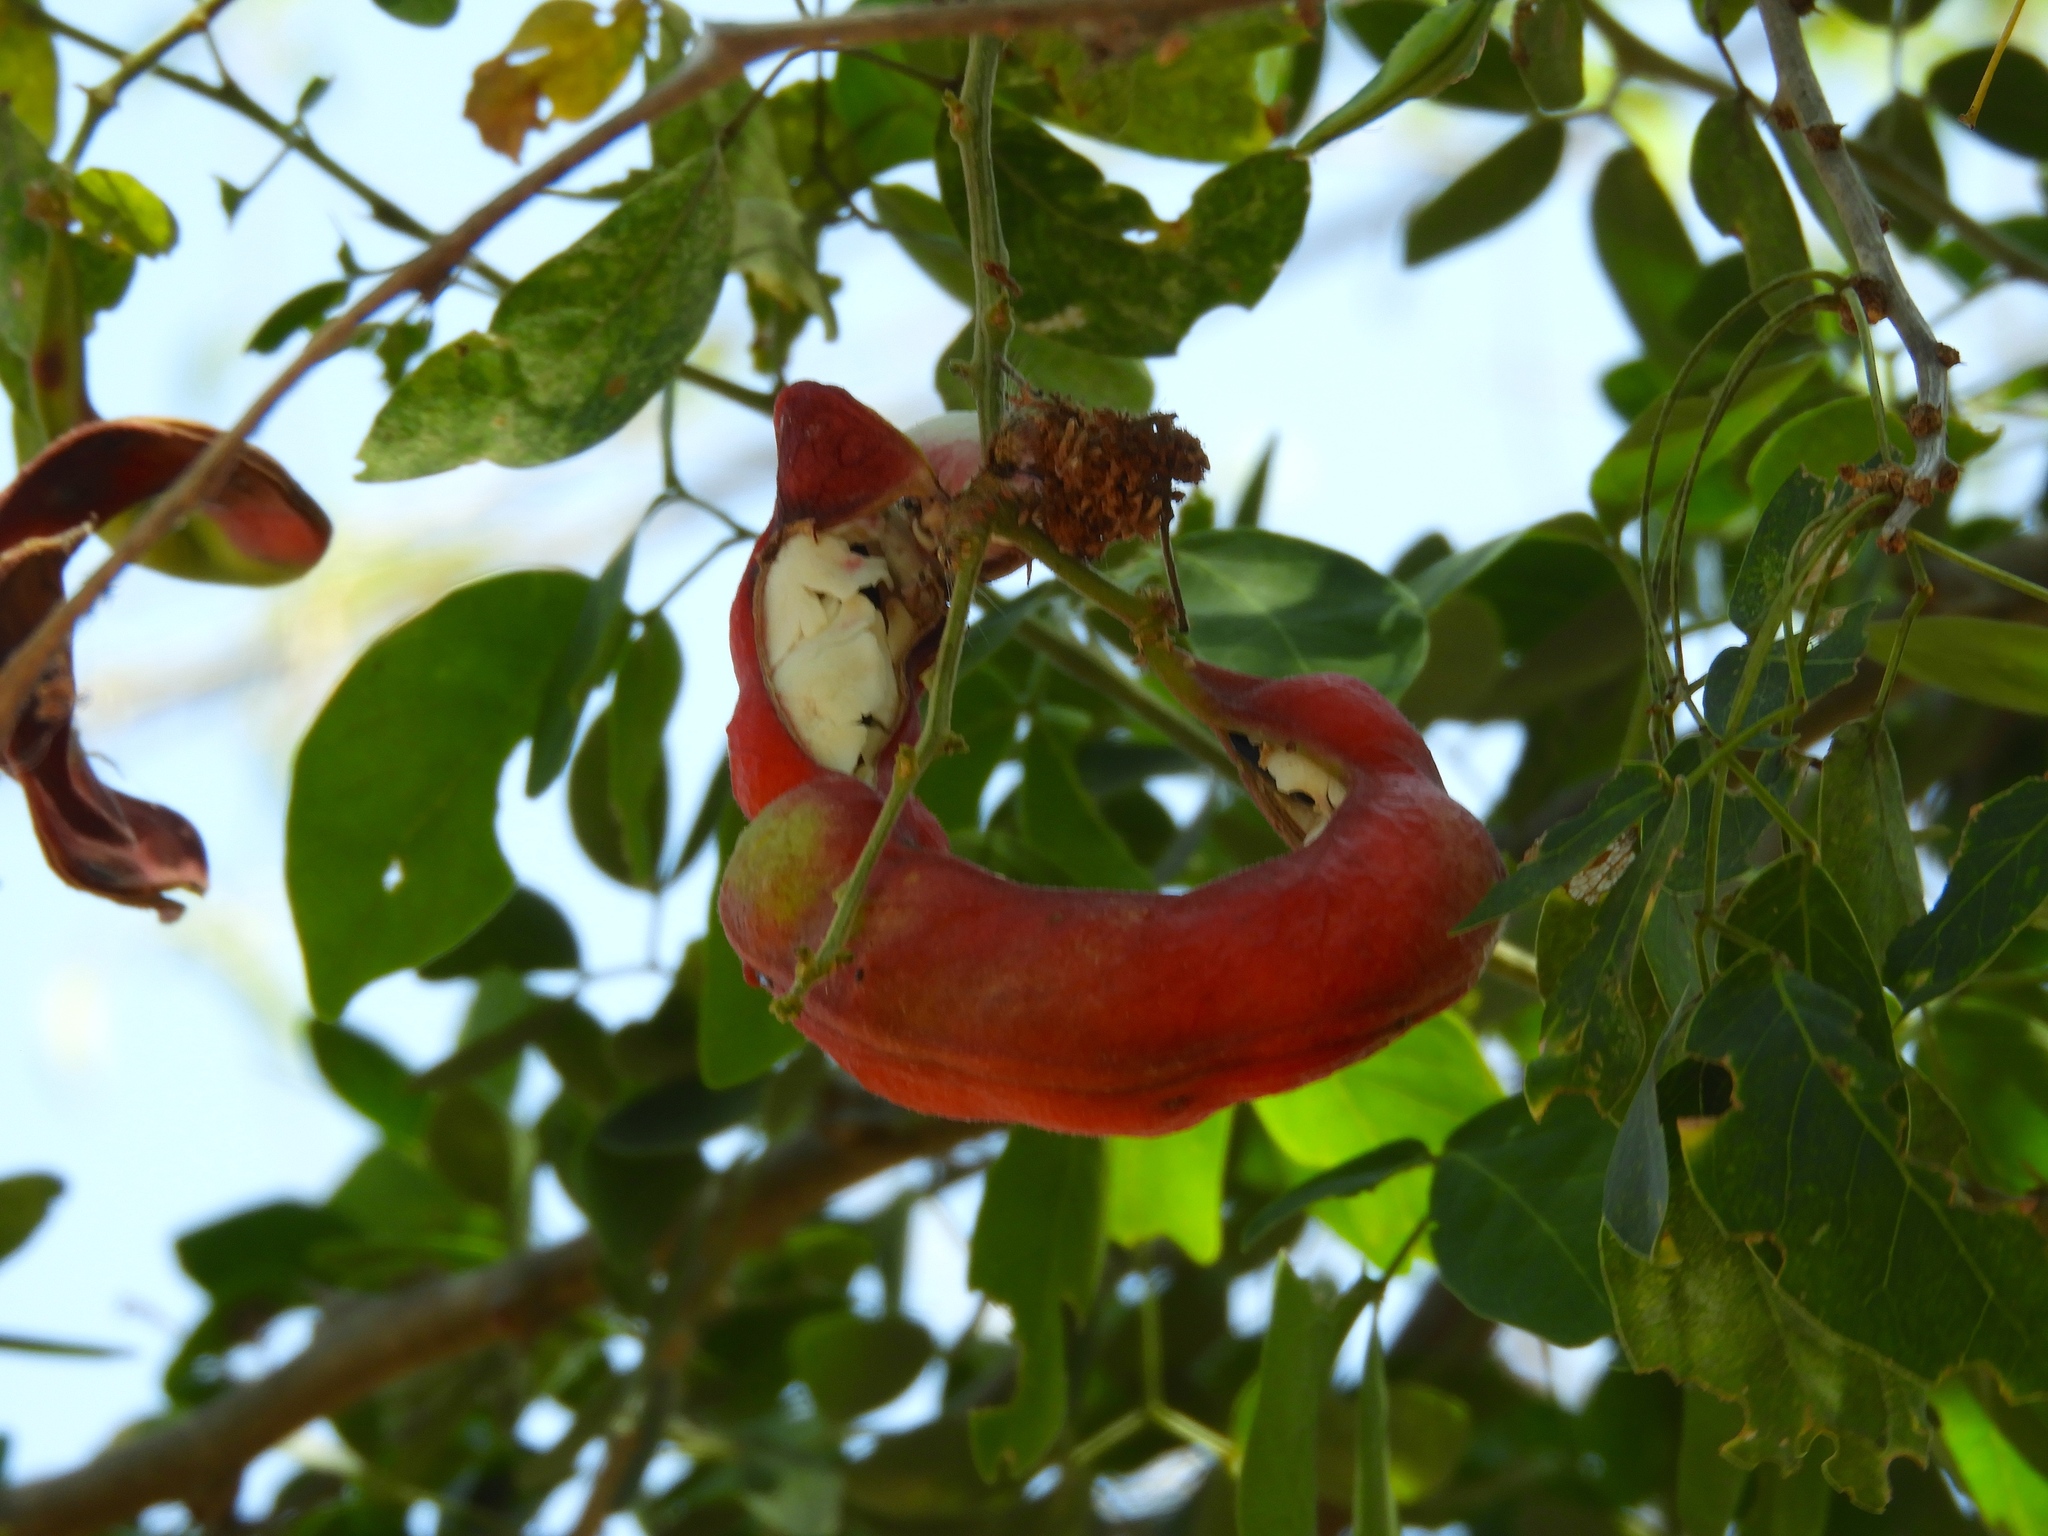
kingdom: Plantae
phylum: Tracheophyta
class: Magnoliopsida
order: Fabales
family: Fabaceae
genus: Pithecellobium
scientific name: Pithecellobium dulce
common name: Monkeypod
